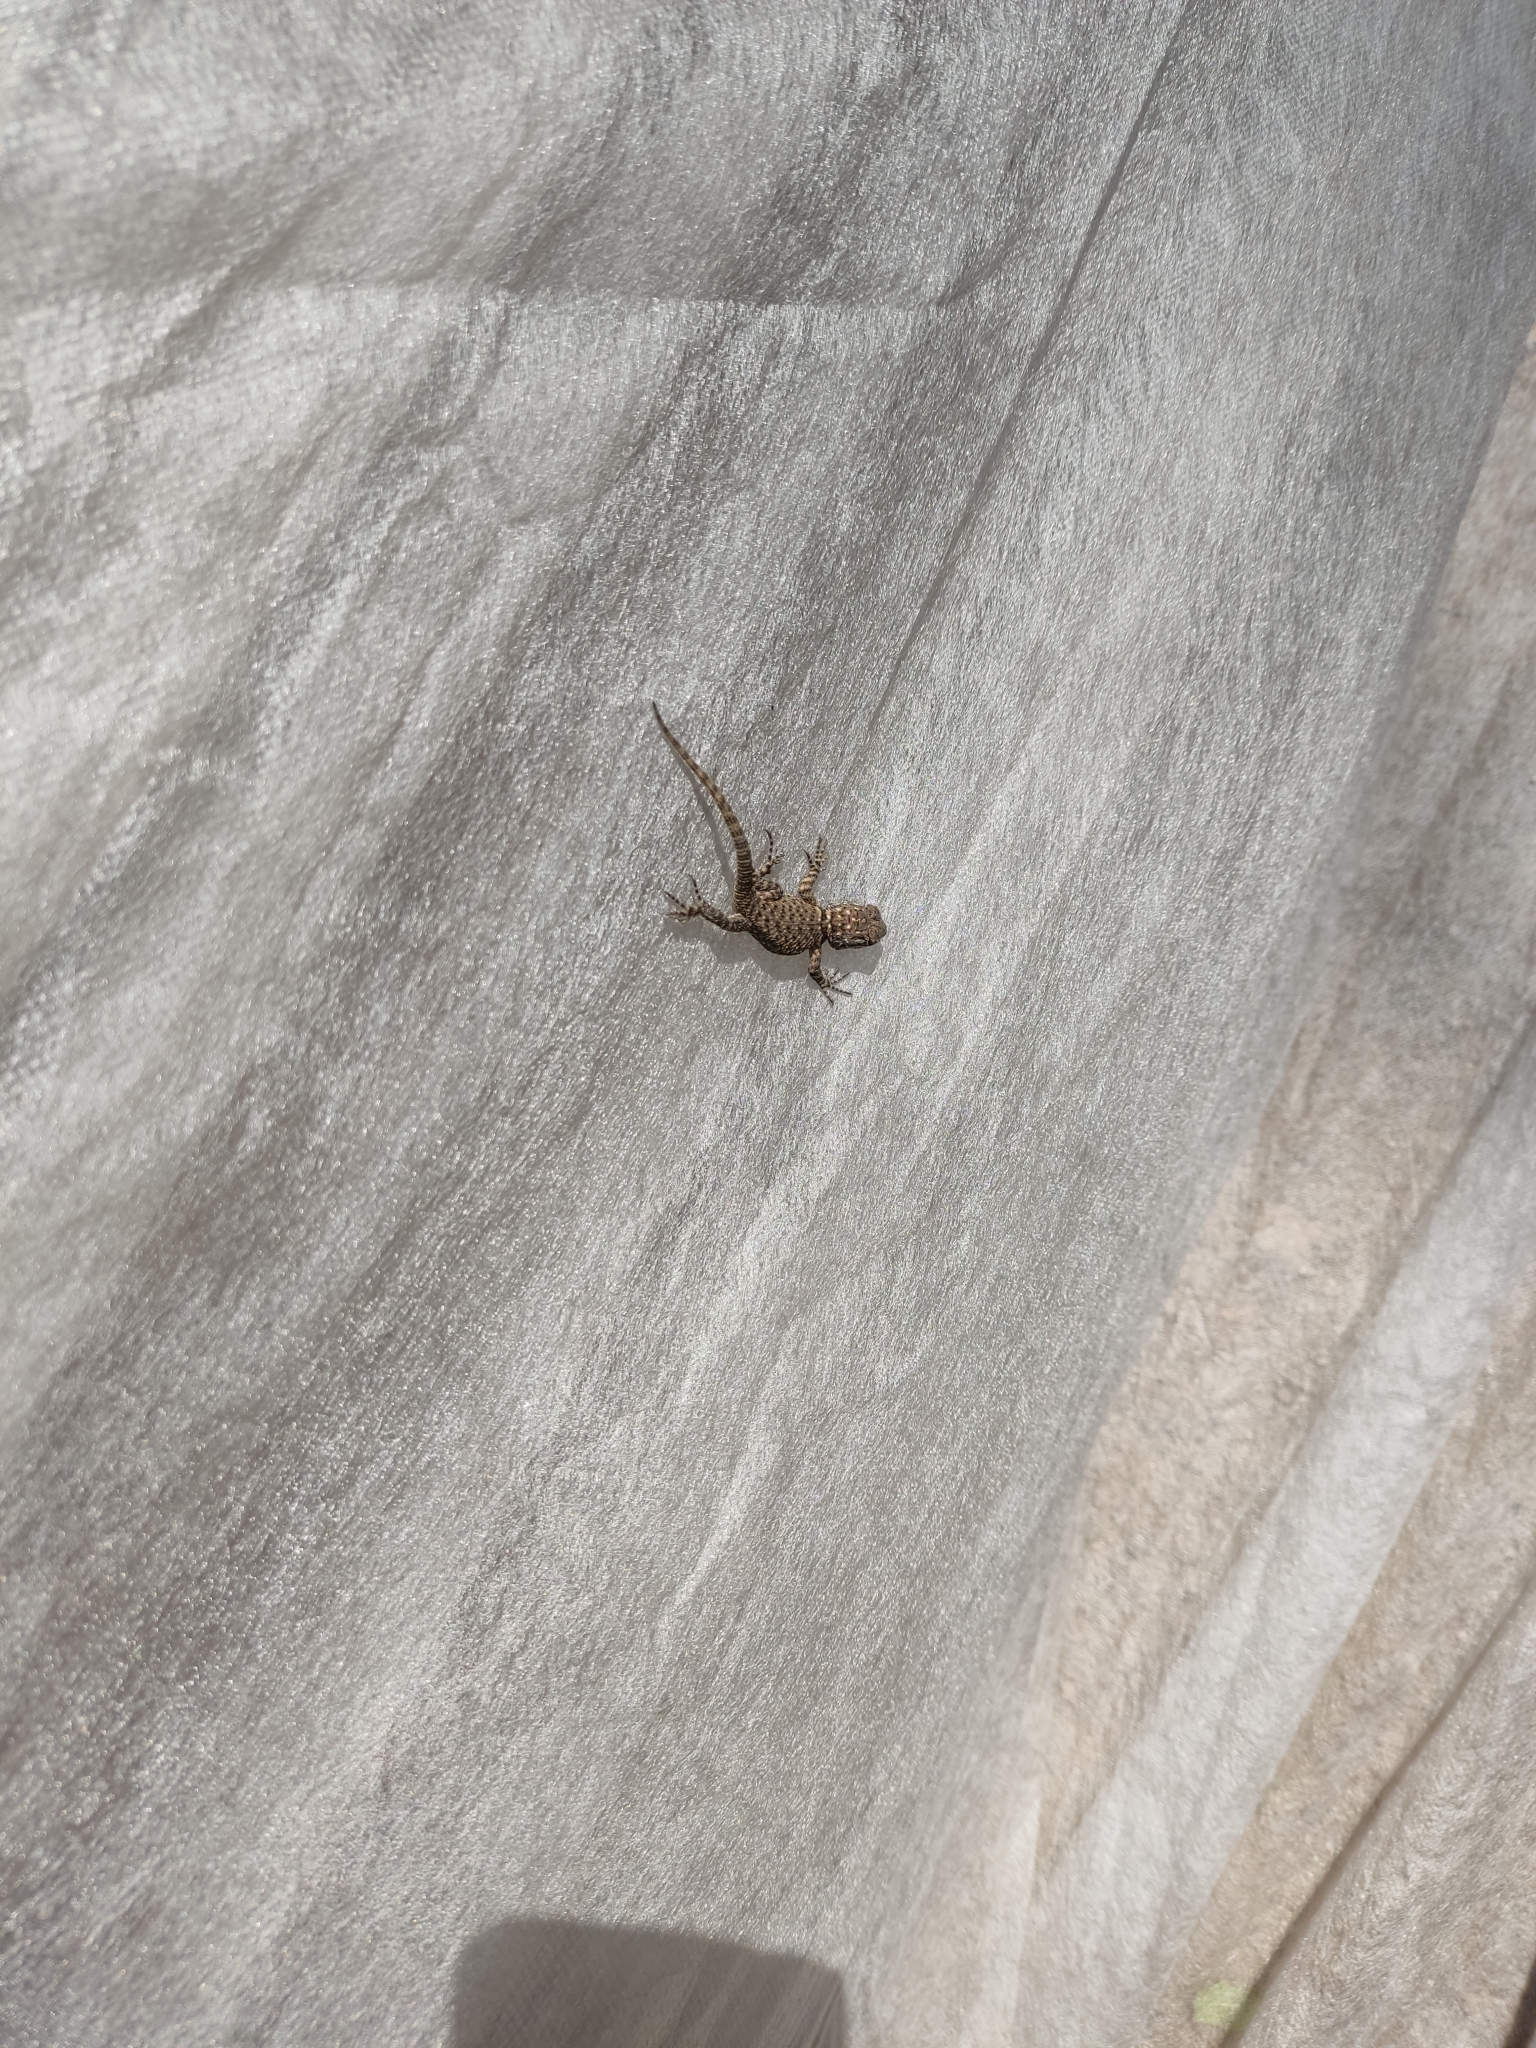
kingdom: Animalia
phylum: Chordata
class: Squamata
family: Phrynosomatidae
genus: Sceloporus
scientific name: Sceloporus torquatus
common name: Central plateau torquate lizard [melanogaster]
